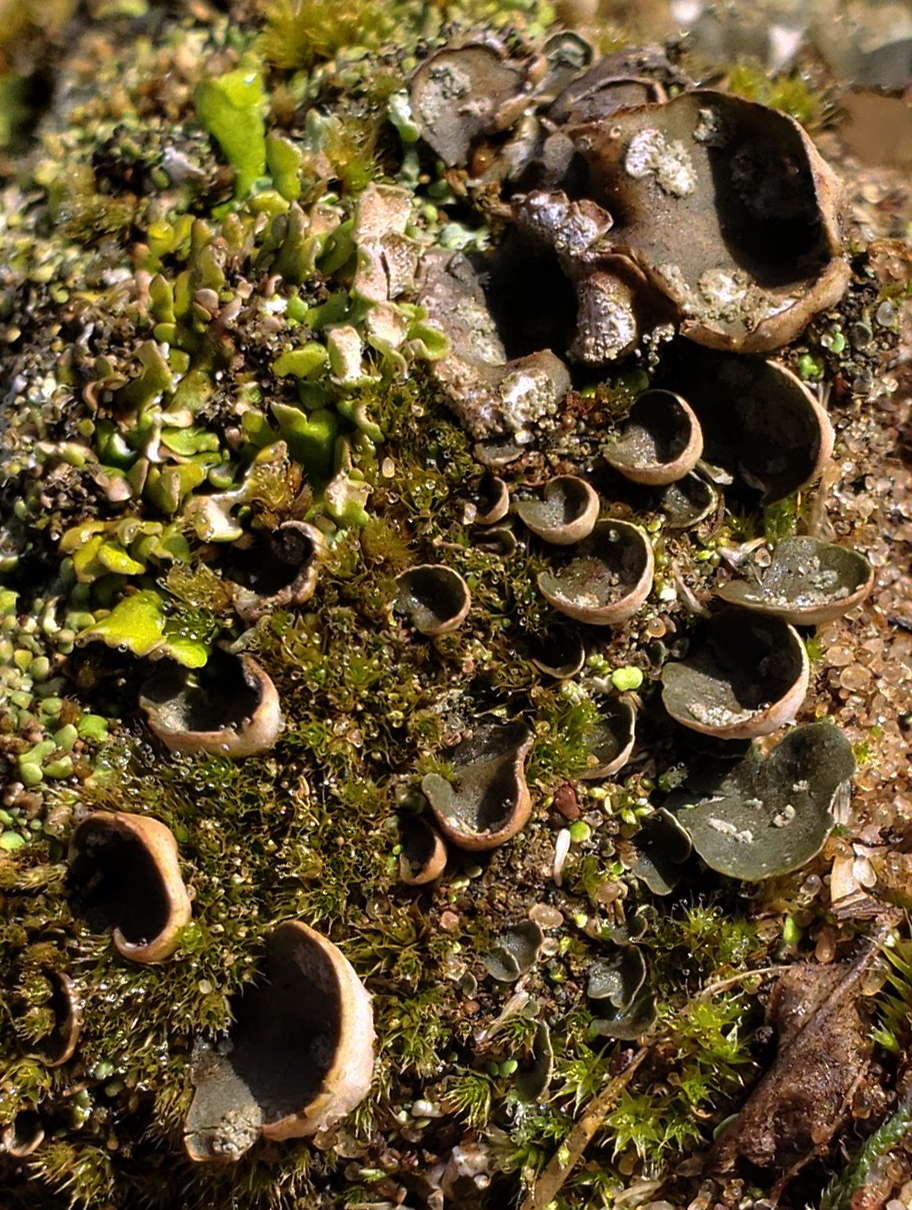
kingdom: Fungi
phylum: Ascomycota
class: Lecanoromycetes
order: Peltigerales
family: Peltigeraceae
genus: Peltigera
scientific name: Peltigera didactyla
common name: Alternating dog lichen
